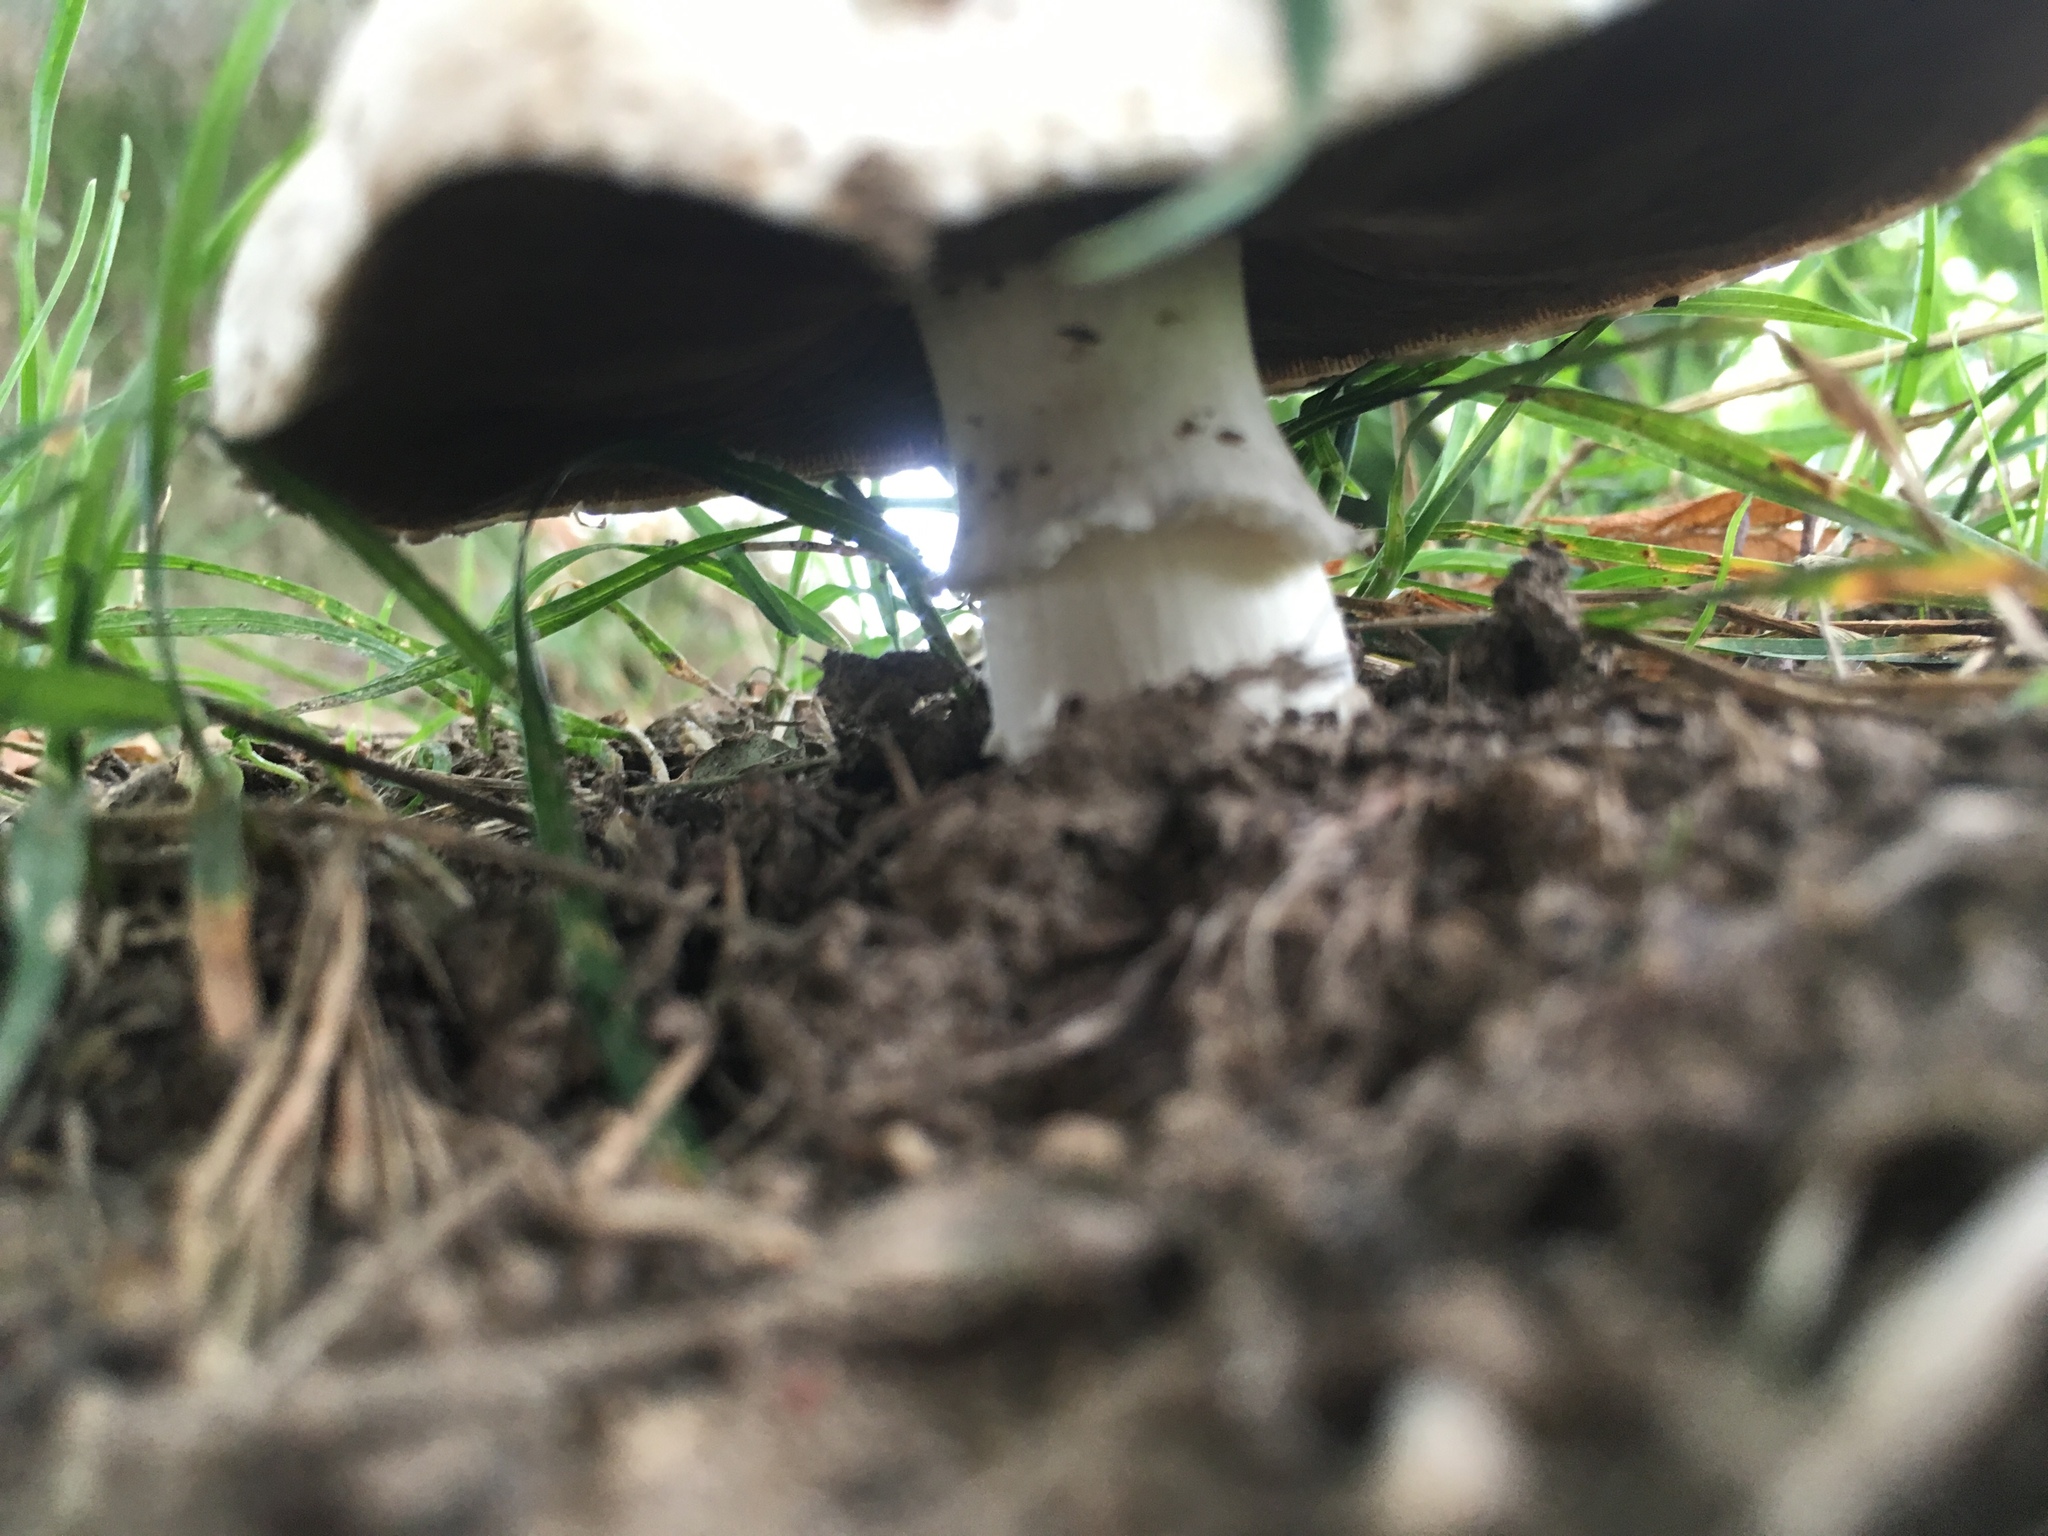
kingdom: Fungi
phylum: Basidiomycota
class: Agaricomycetes
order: Agaricales
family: Agaricaceae
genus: Agaricus
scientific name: Agaricus campestris
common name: Field mushroom
